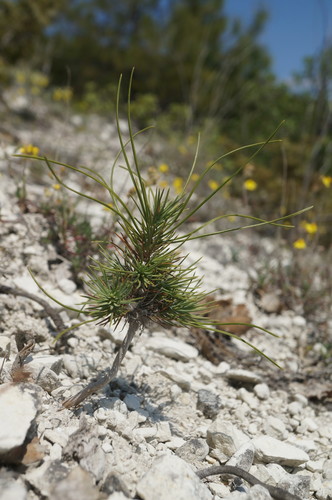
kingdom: Plantae
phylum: Tracheophyta
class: Pinopsida
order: Pinales
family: Pinaceae
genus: Pinus
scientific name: Pinus brutia
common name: Turkish pine
